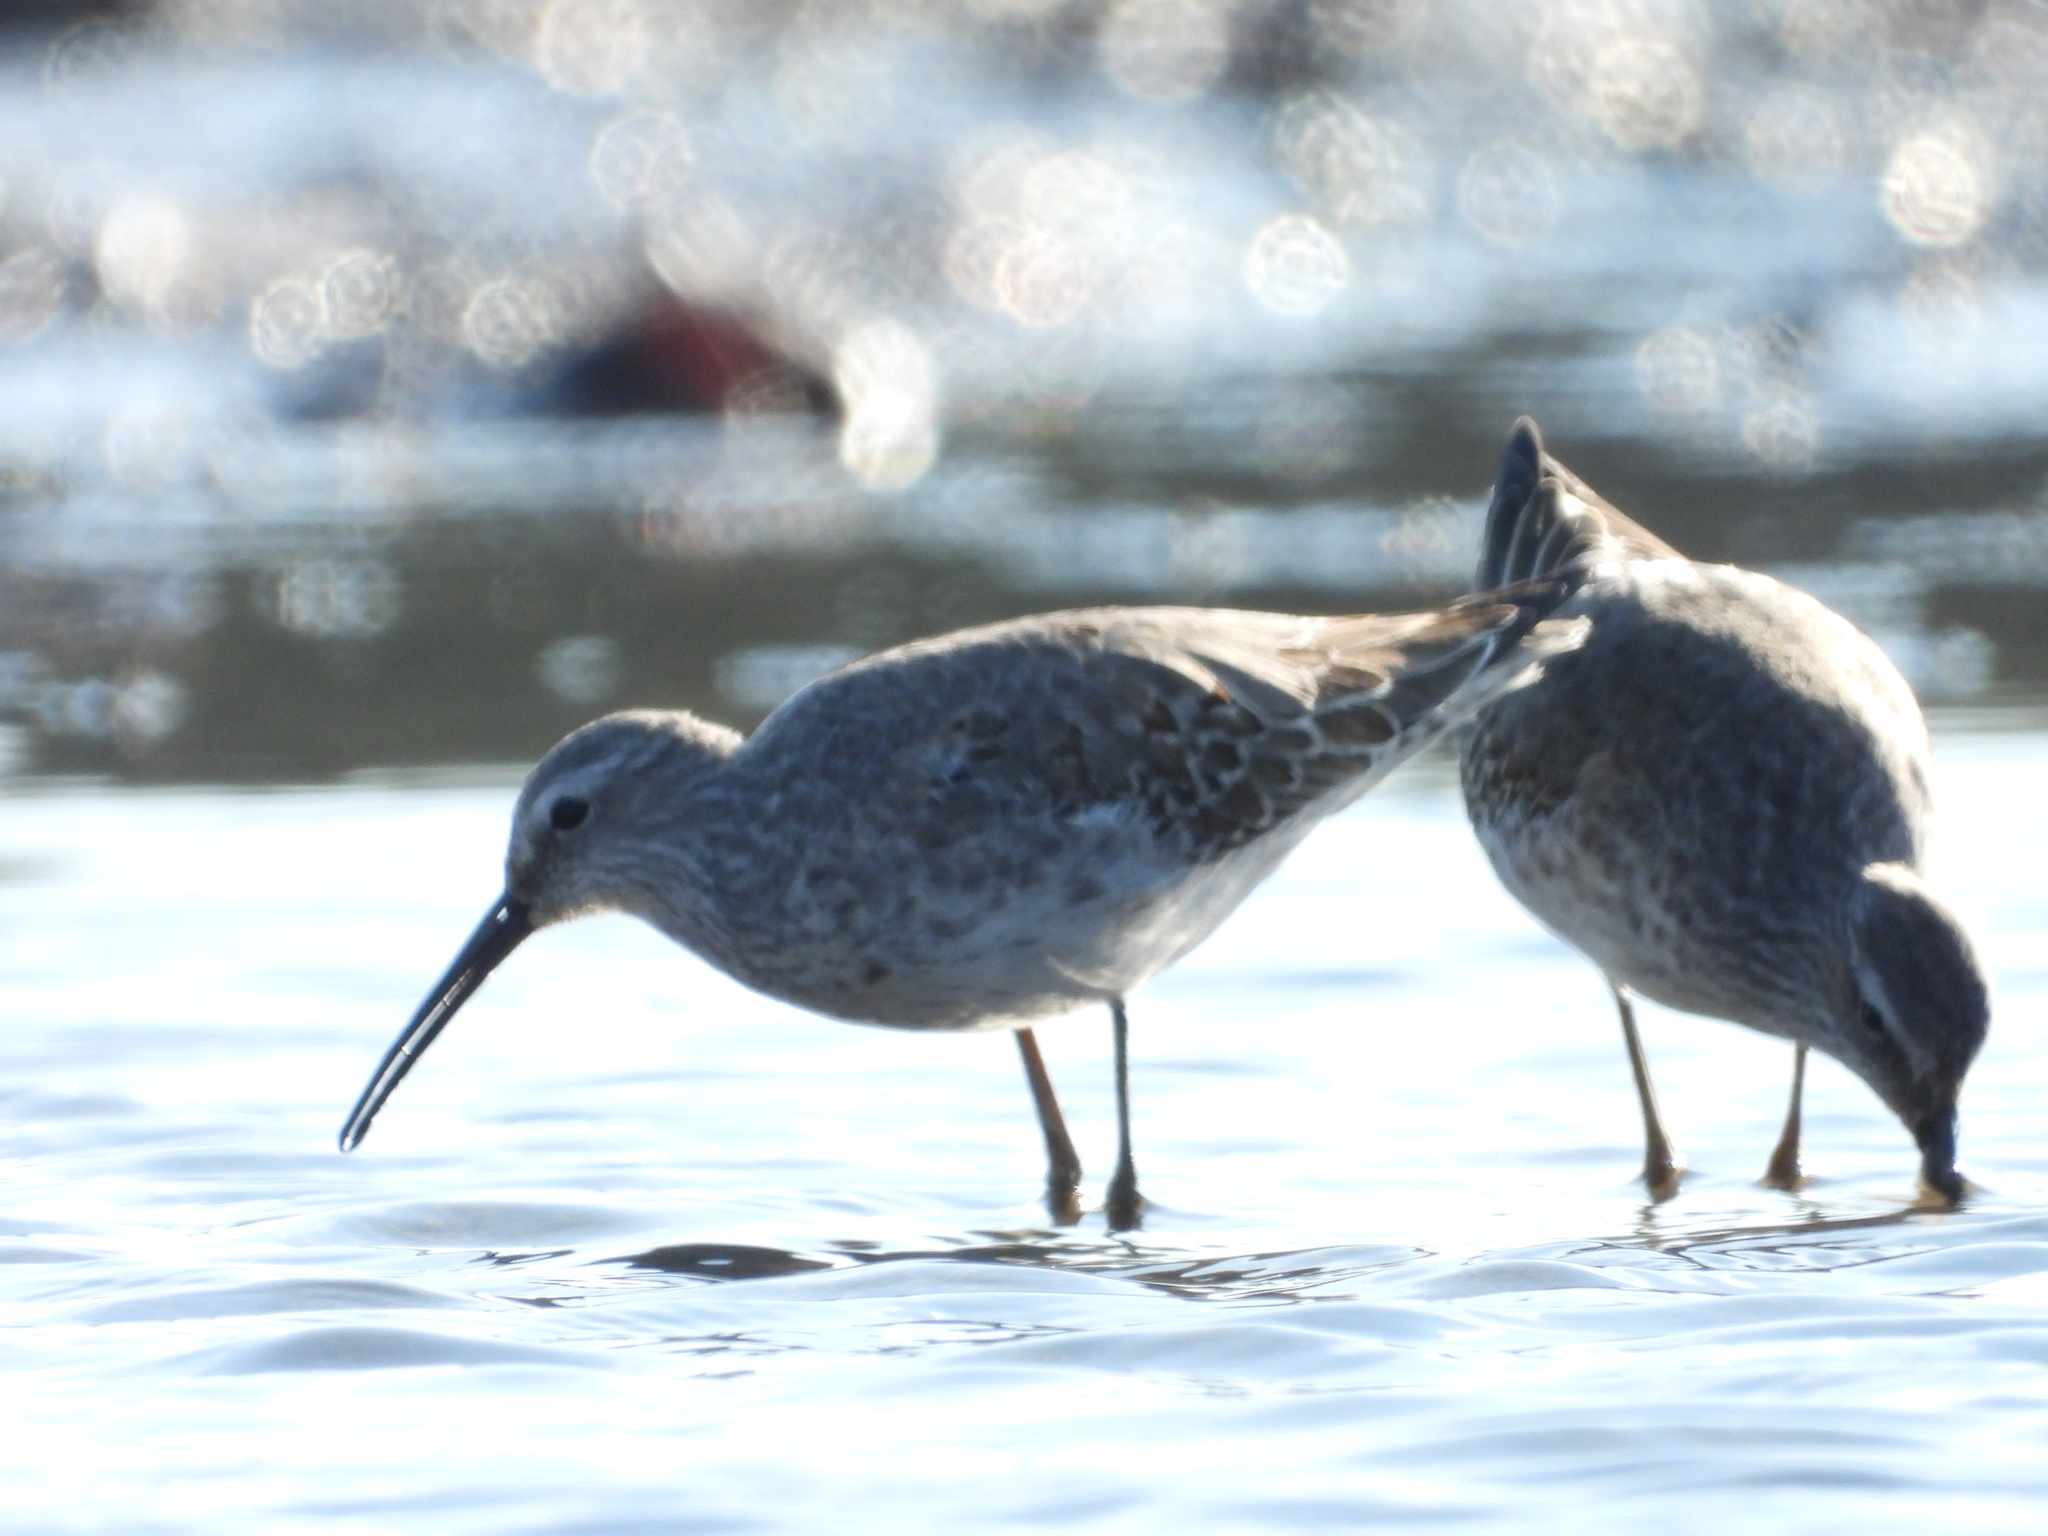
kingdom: Animalia
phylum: Chordata
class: Aves
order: Charadriiformes
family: Scolopacidae
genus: Calidris
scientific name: Calidris himantopus
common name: Stilt sandpiper
